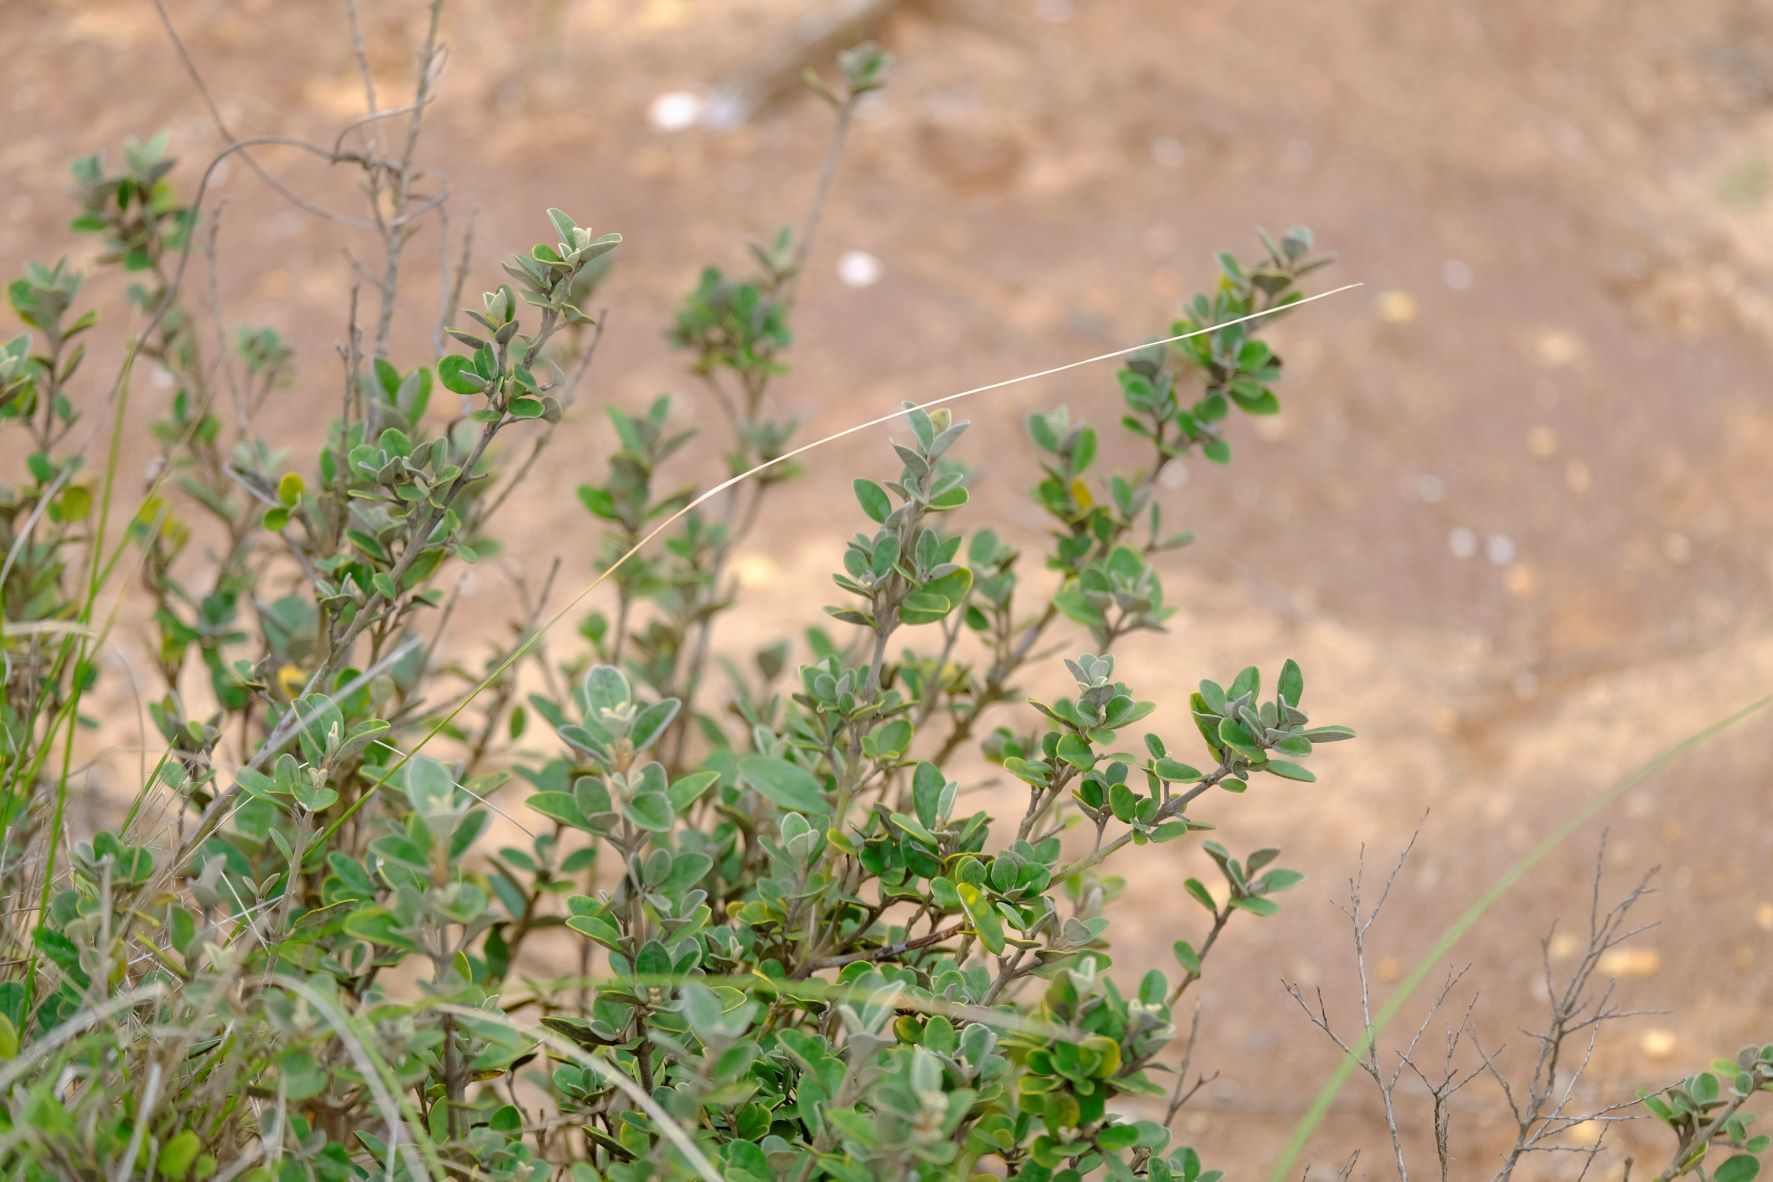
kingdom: Plantae
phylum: Tracheophyta
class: Magnoliopsida
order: Sapindales
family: Rutaceae
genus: Correa
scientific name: Correa alba
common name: White correa
